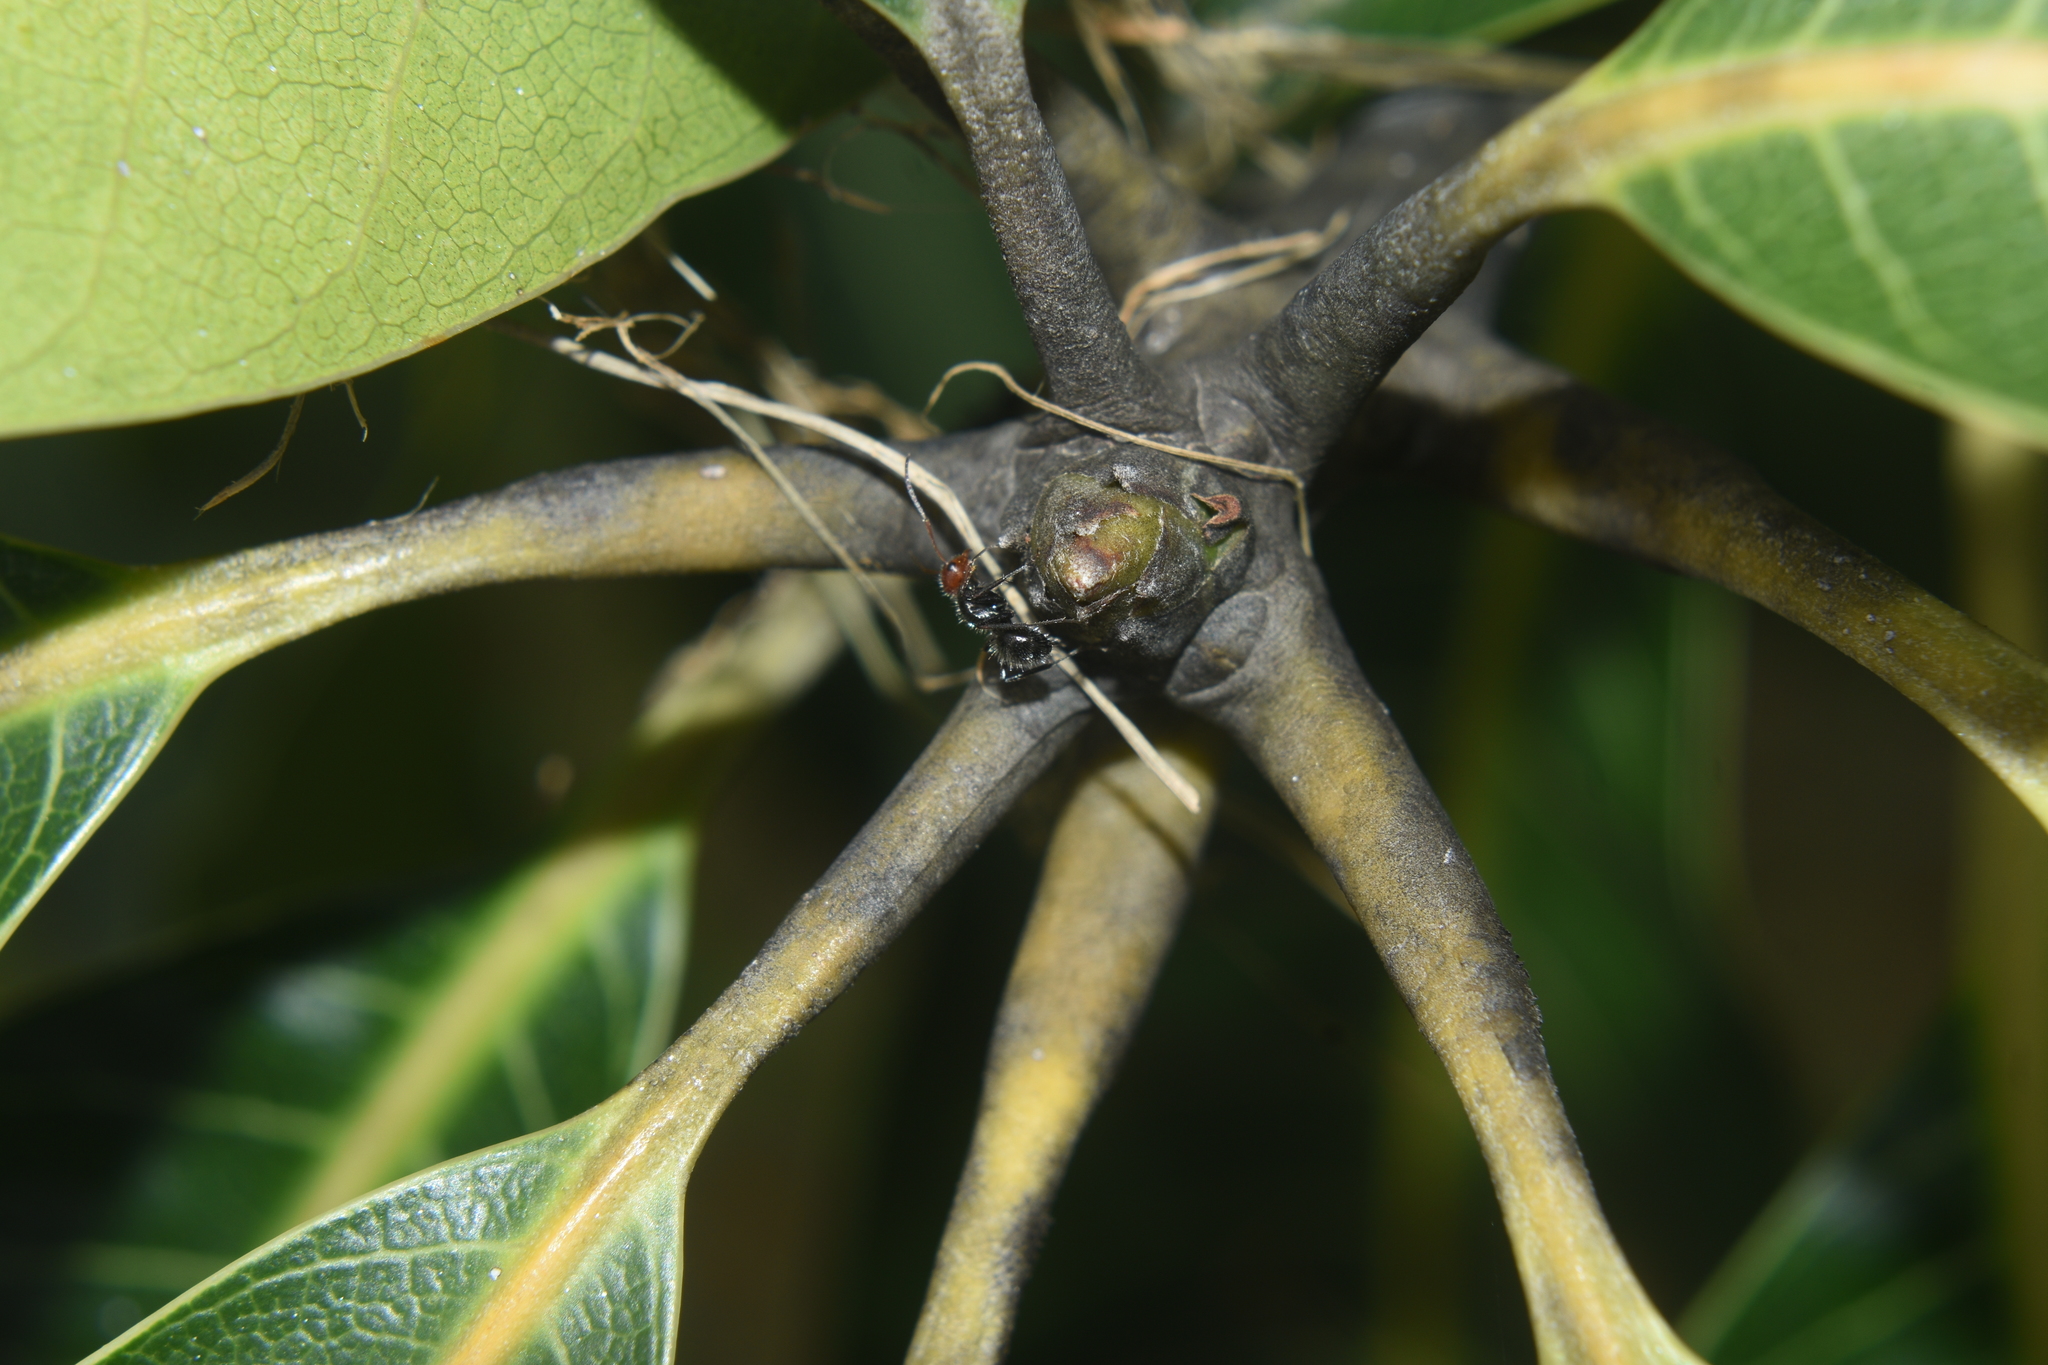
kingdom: Animalia
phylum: Arthropoda
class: Insecta
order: Hymenoptera
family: Formicidae
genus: Camponotus
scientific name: Camponotus lindigi
